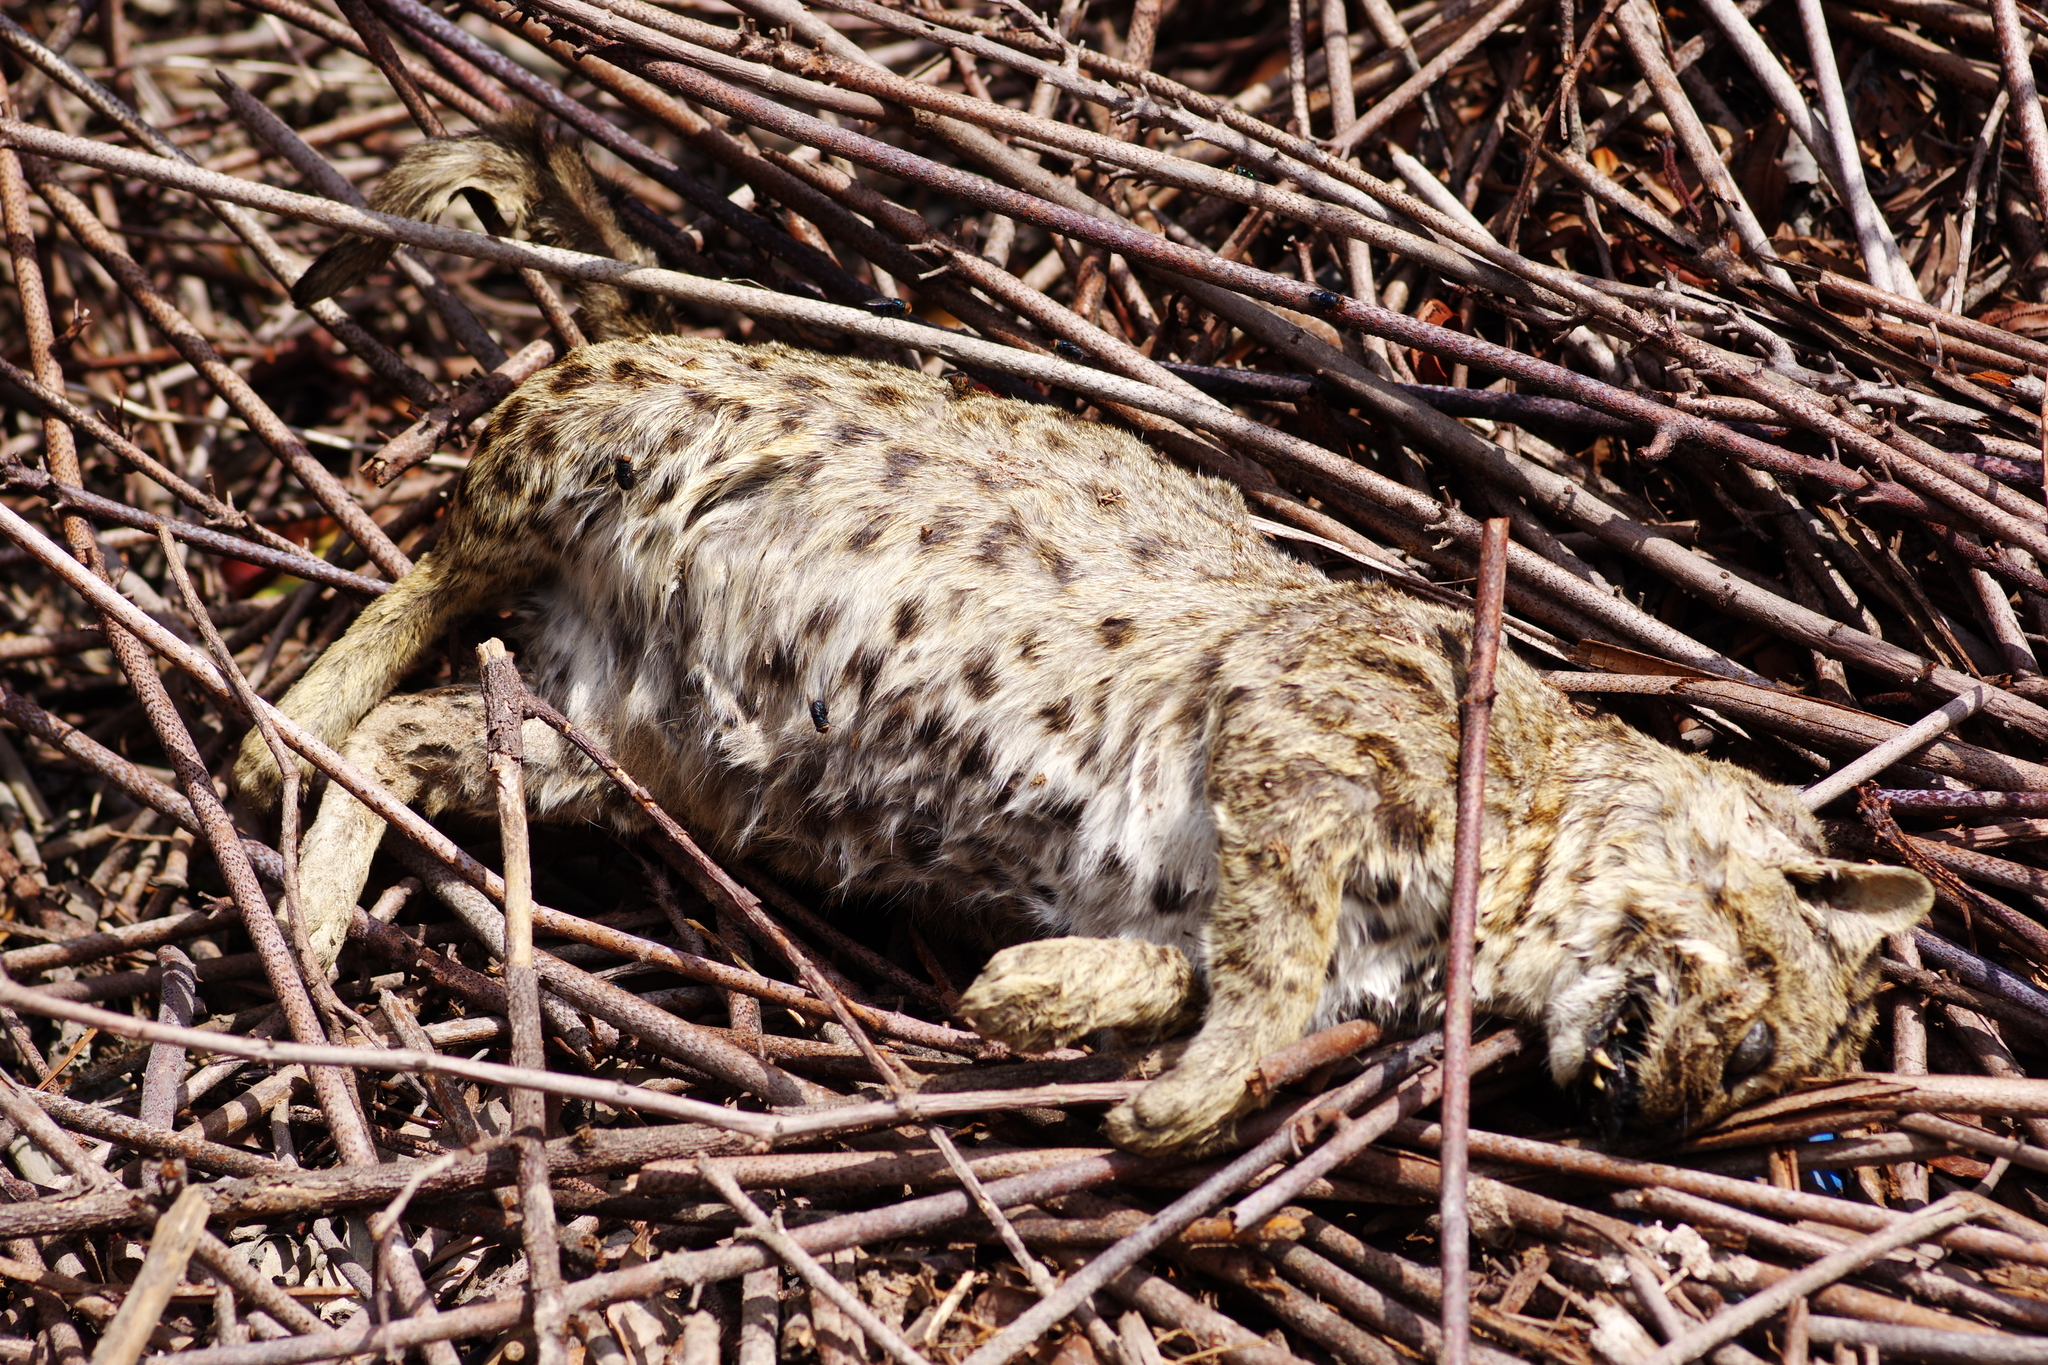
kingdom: Animalia
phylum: Chordata
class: Mammalia
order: Carnivora
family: Felidae
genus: Prionailurus
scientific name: Prionailurus bengalensis
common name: Leopard cat
